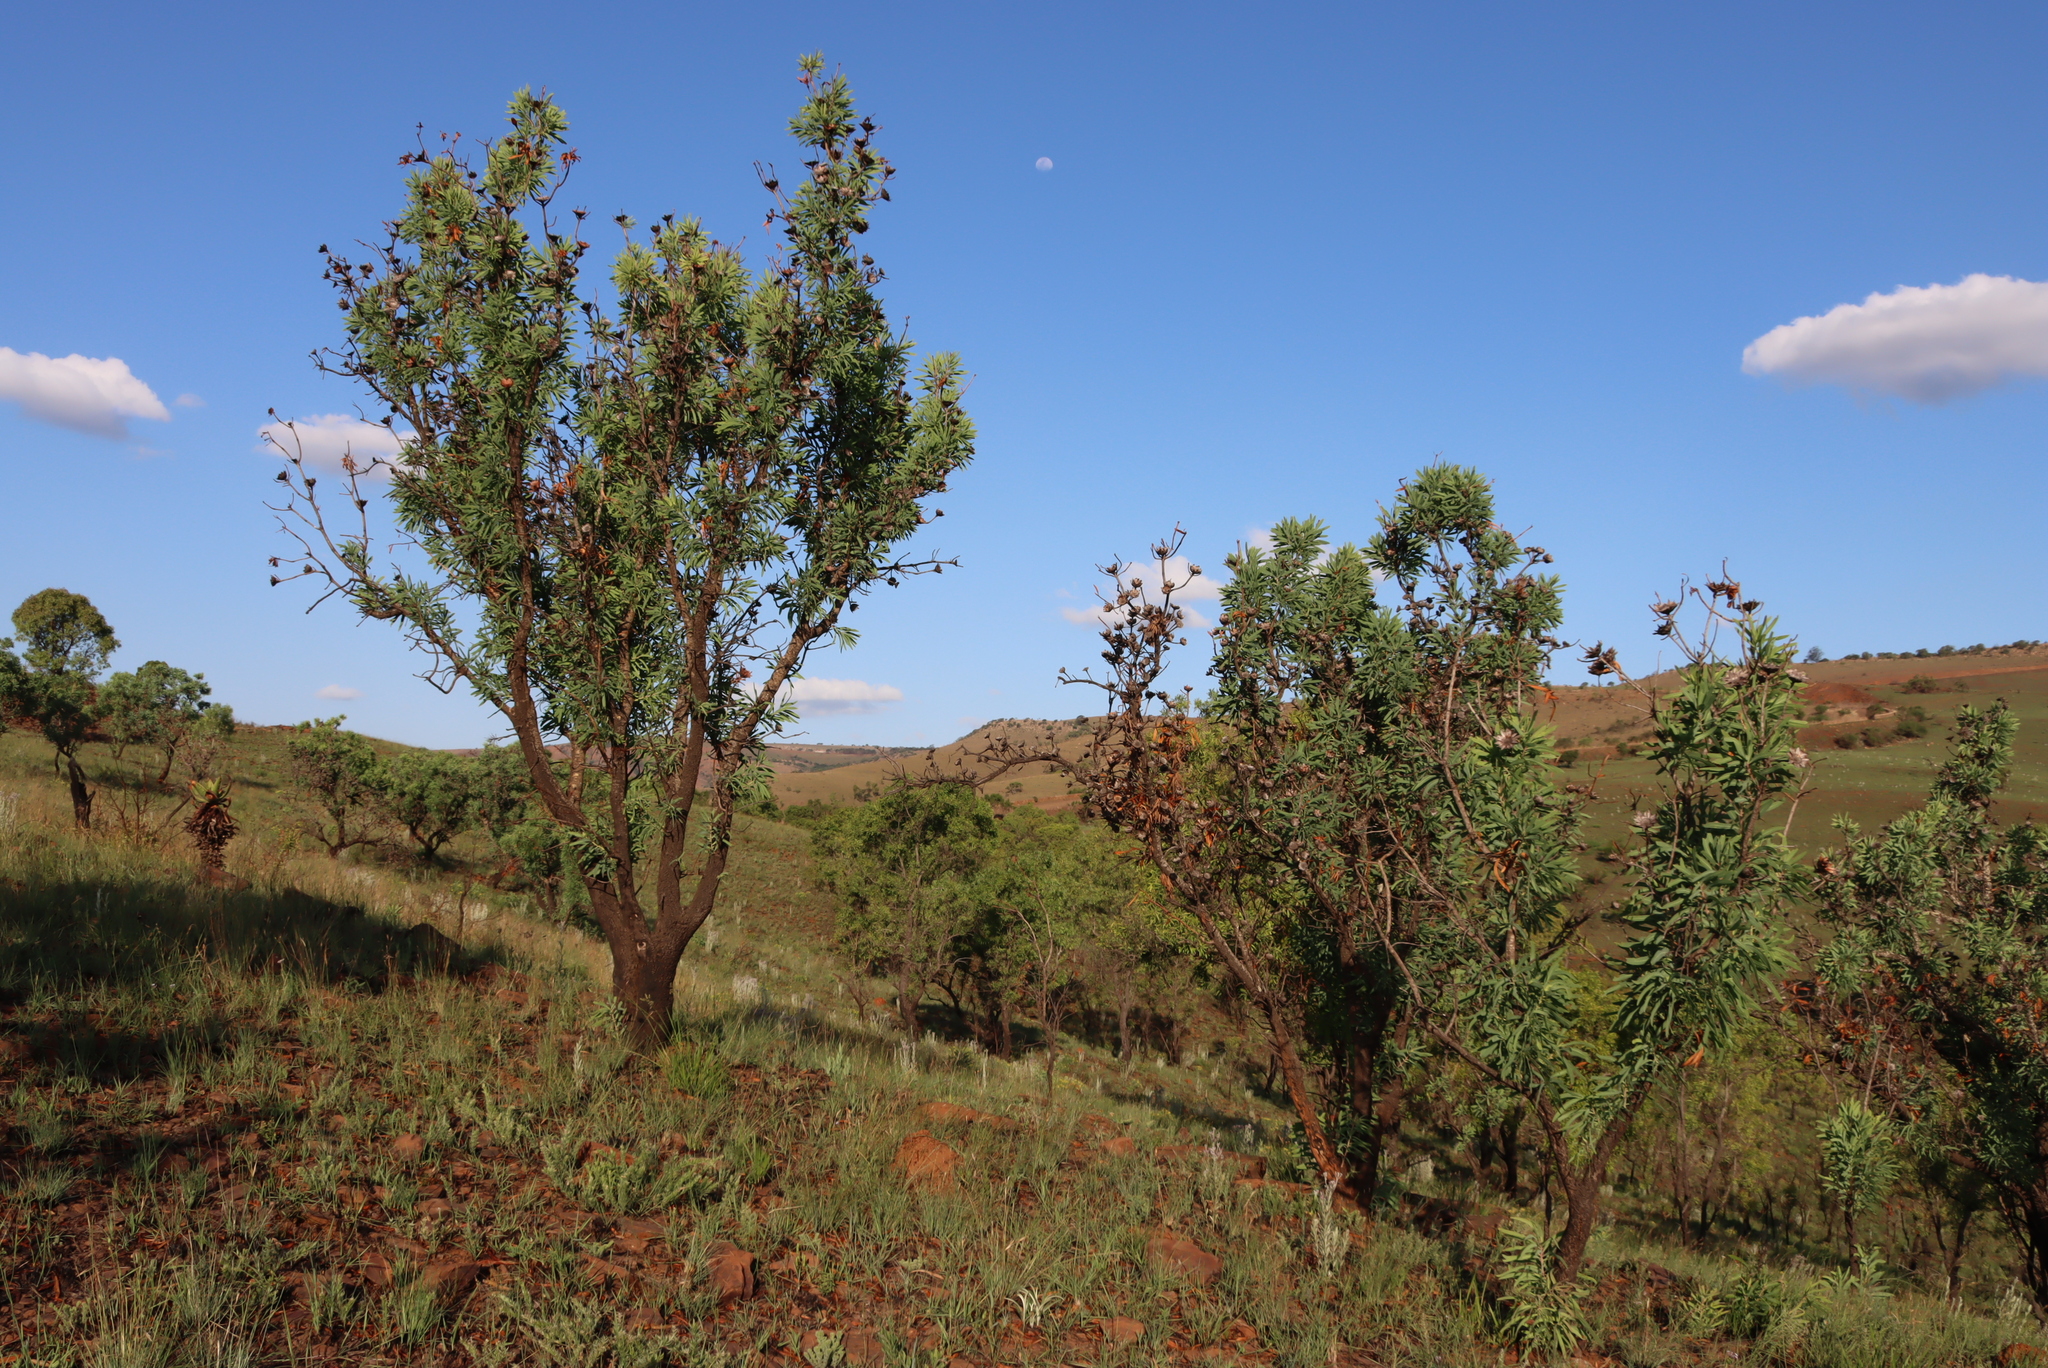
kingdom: Plantae
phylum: Tracheophyta
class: Magnoliopsida
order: Proteales
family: Proteaceae
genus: Protea
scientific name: Protea caffra
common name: Common sugarbush
